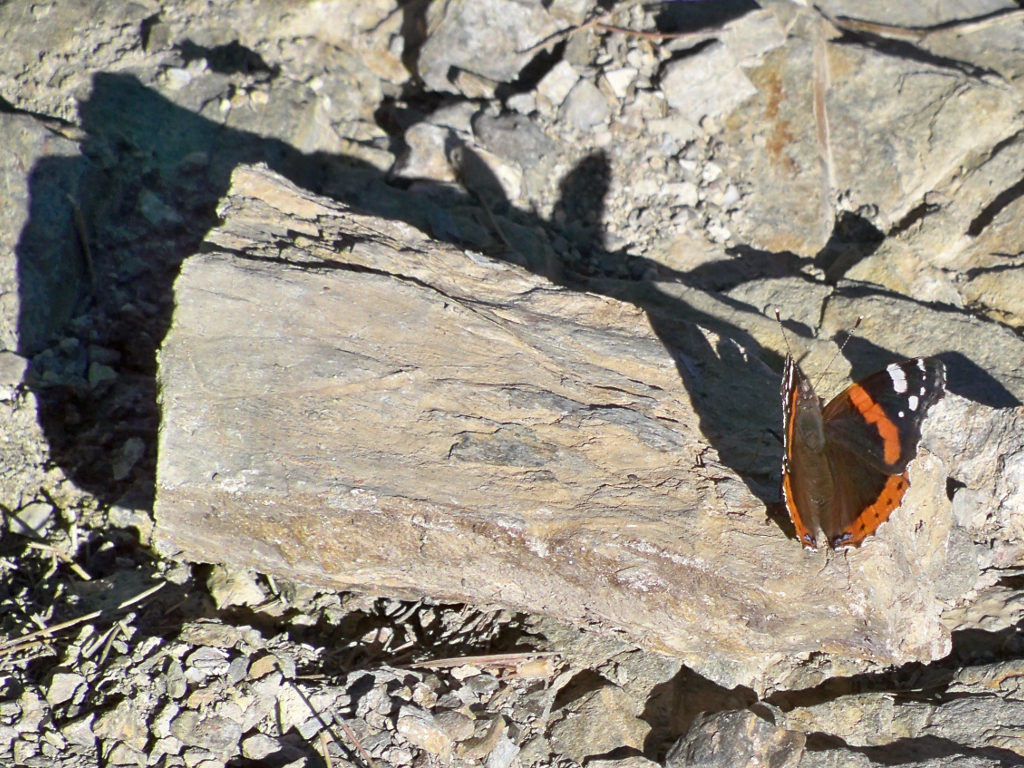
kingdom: Animalia
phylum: Arthropoda
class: Insecta
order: Lepidoptera
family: Nymphalidae
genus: Vanessa
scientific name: Vanessa atalanta
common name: Red admiral
